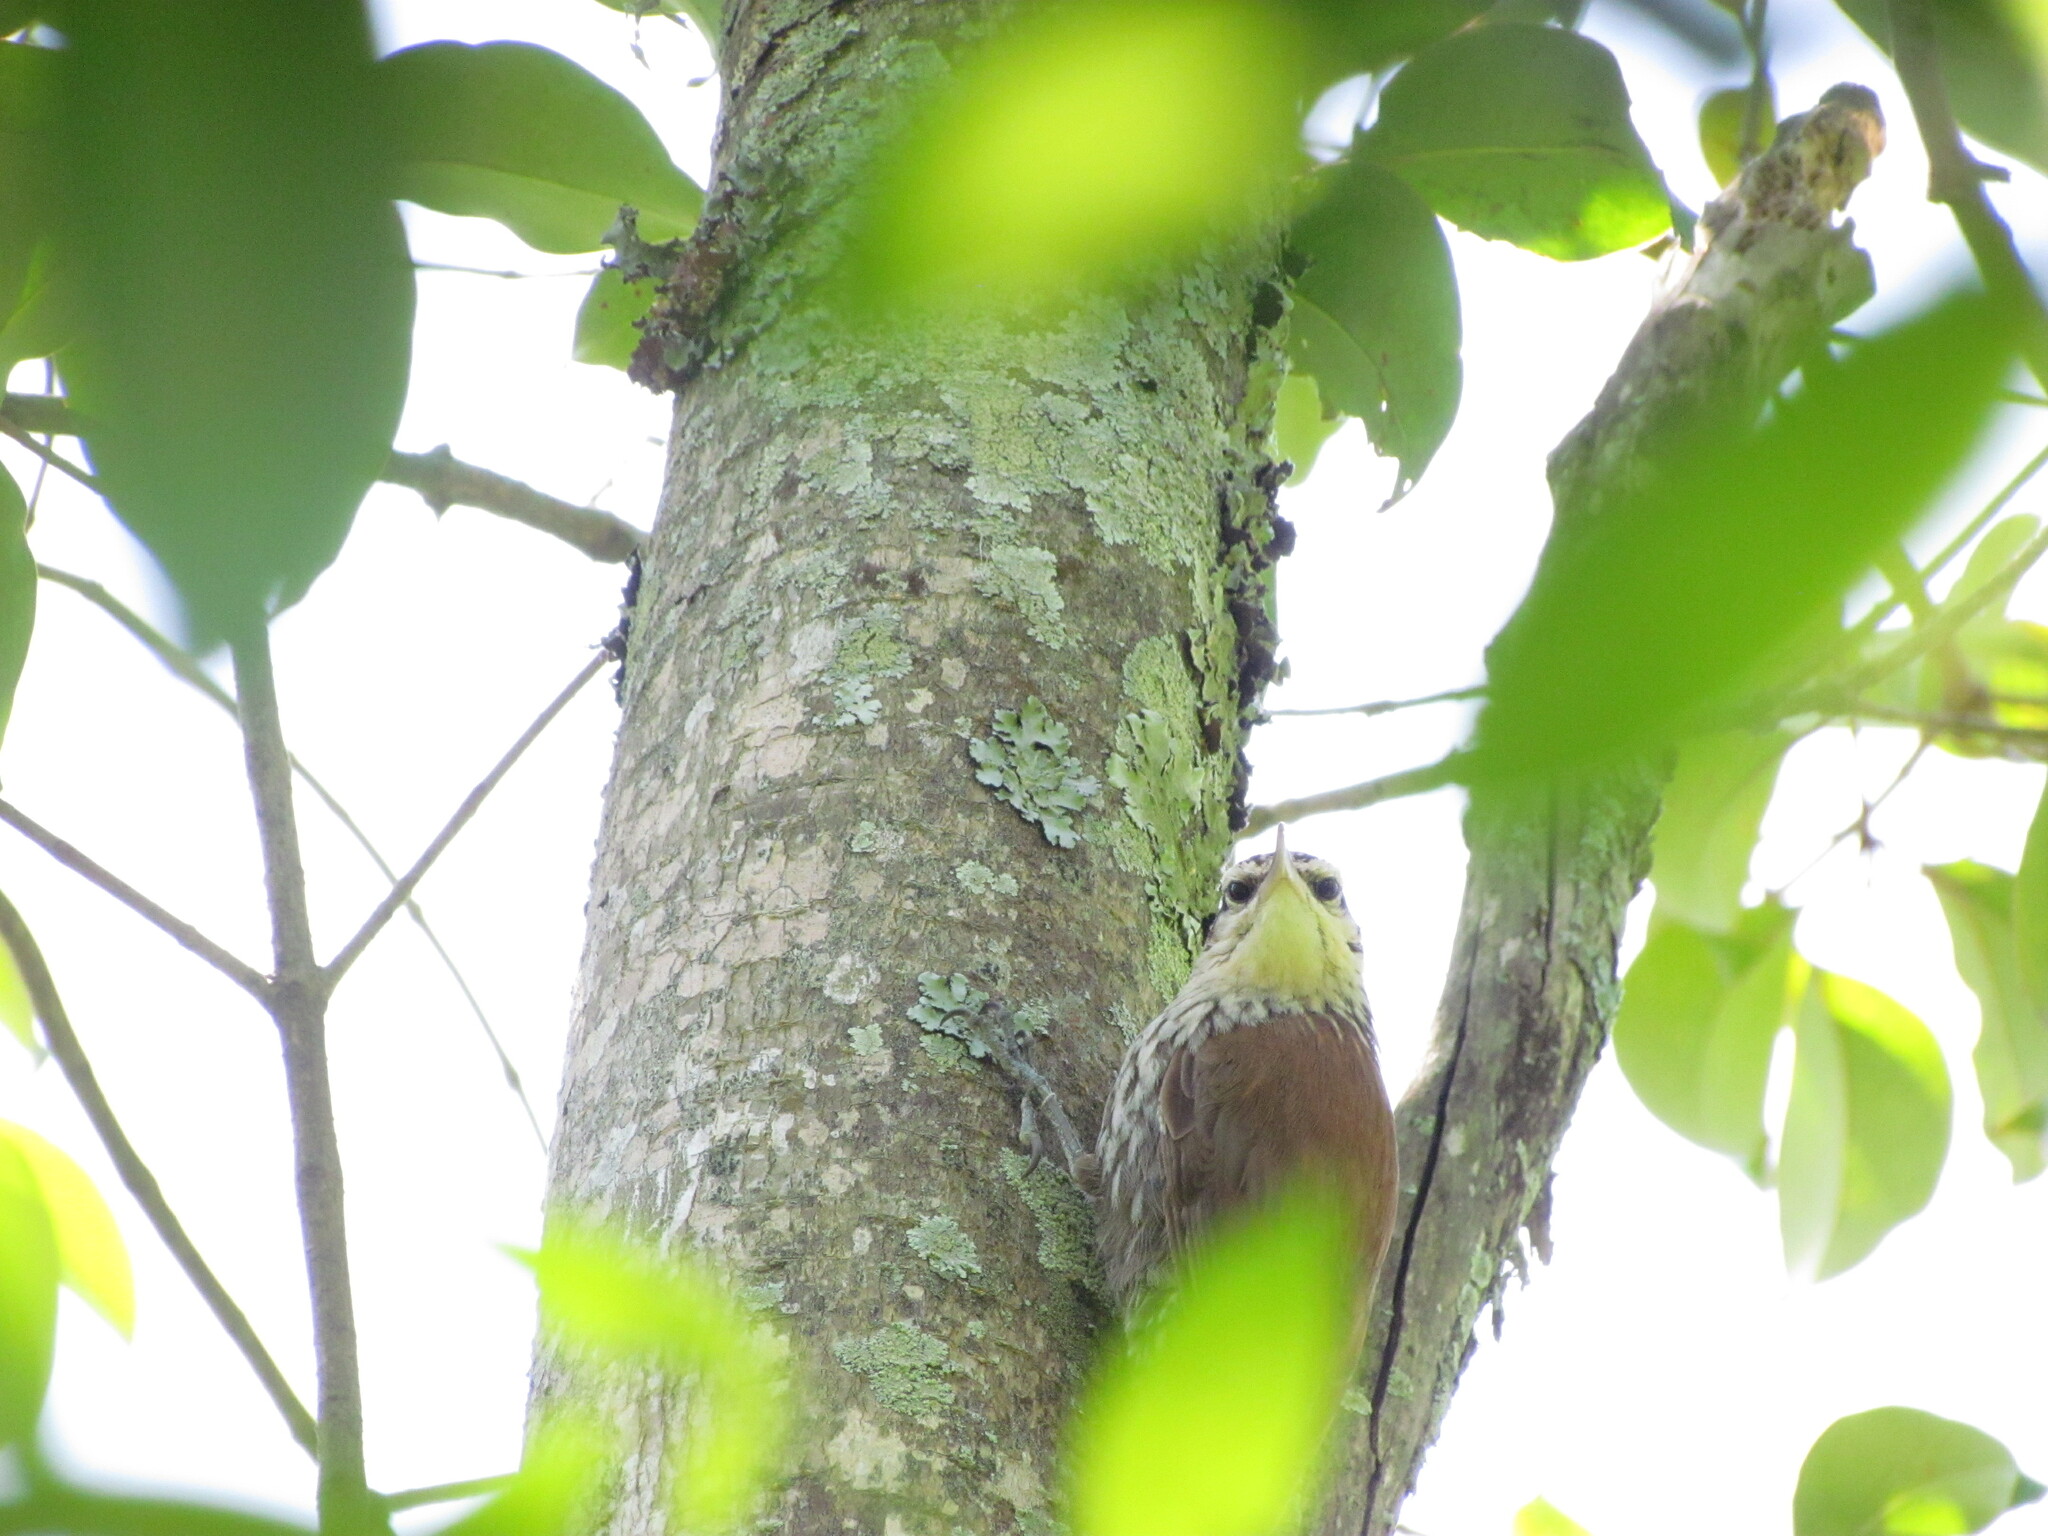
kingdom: Animalia
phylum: Chordata
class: Aves
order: Passeriformes
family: Furnariidae
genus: Lepidocolaptes
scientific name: Lepidocolaptes angustirostris
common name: Narrow-billed woodcreeper
